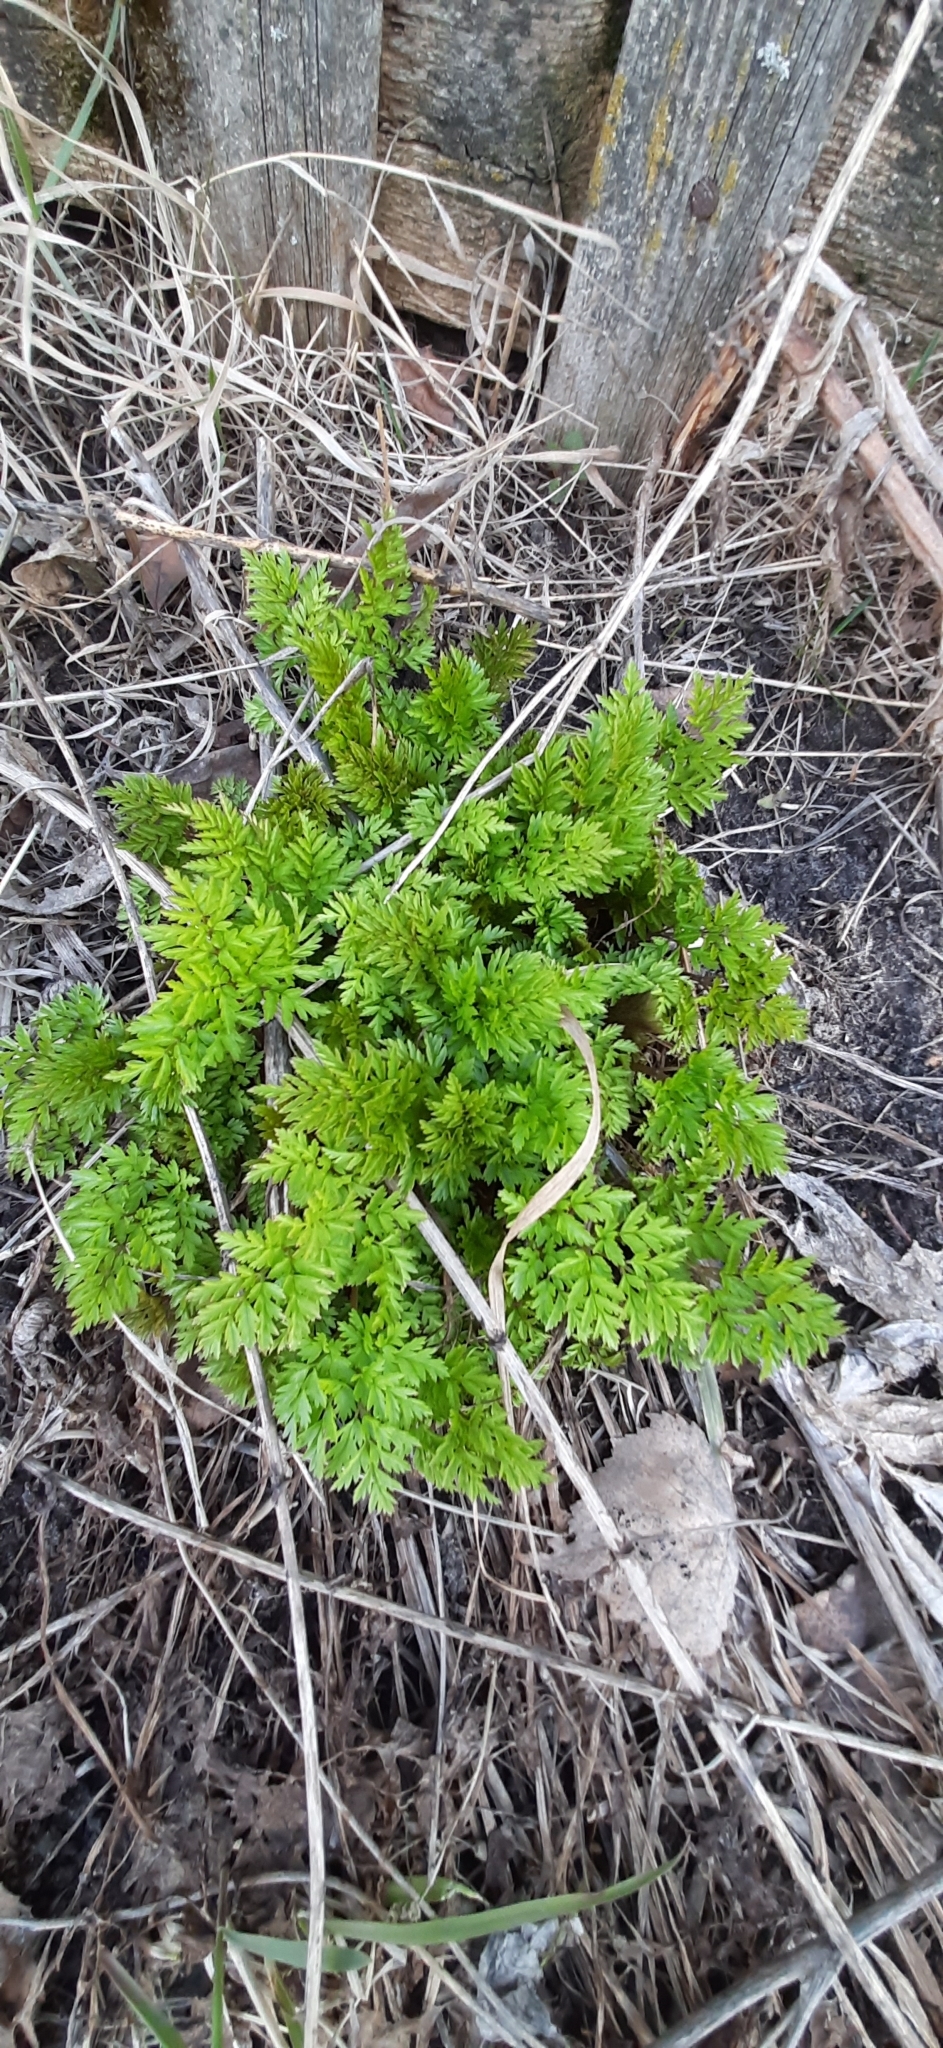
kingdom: Plantae
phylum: Tracheophyta
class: Magnoliopsida
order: Apiales
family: Apiaceae
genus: Anthriscus
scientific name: Anthriscus sylvestris
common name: Cow parsley
